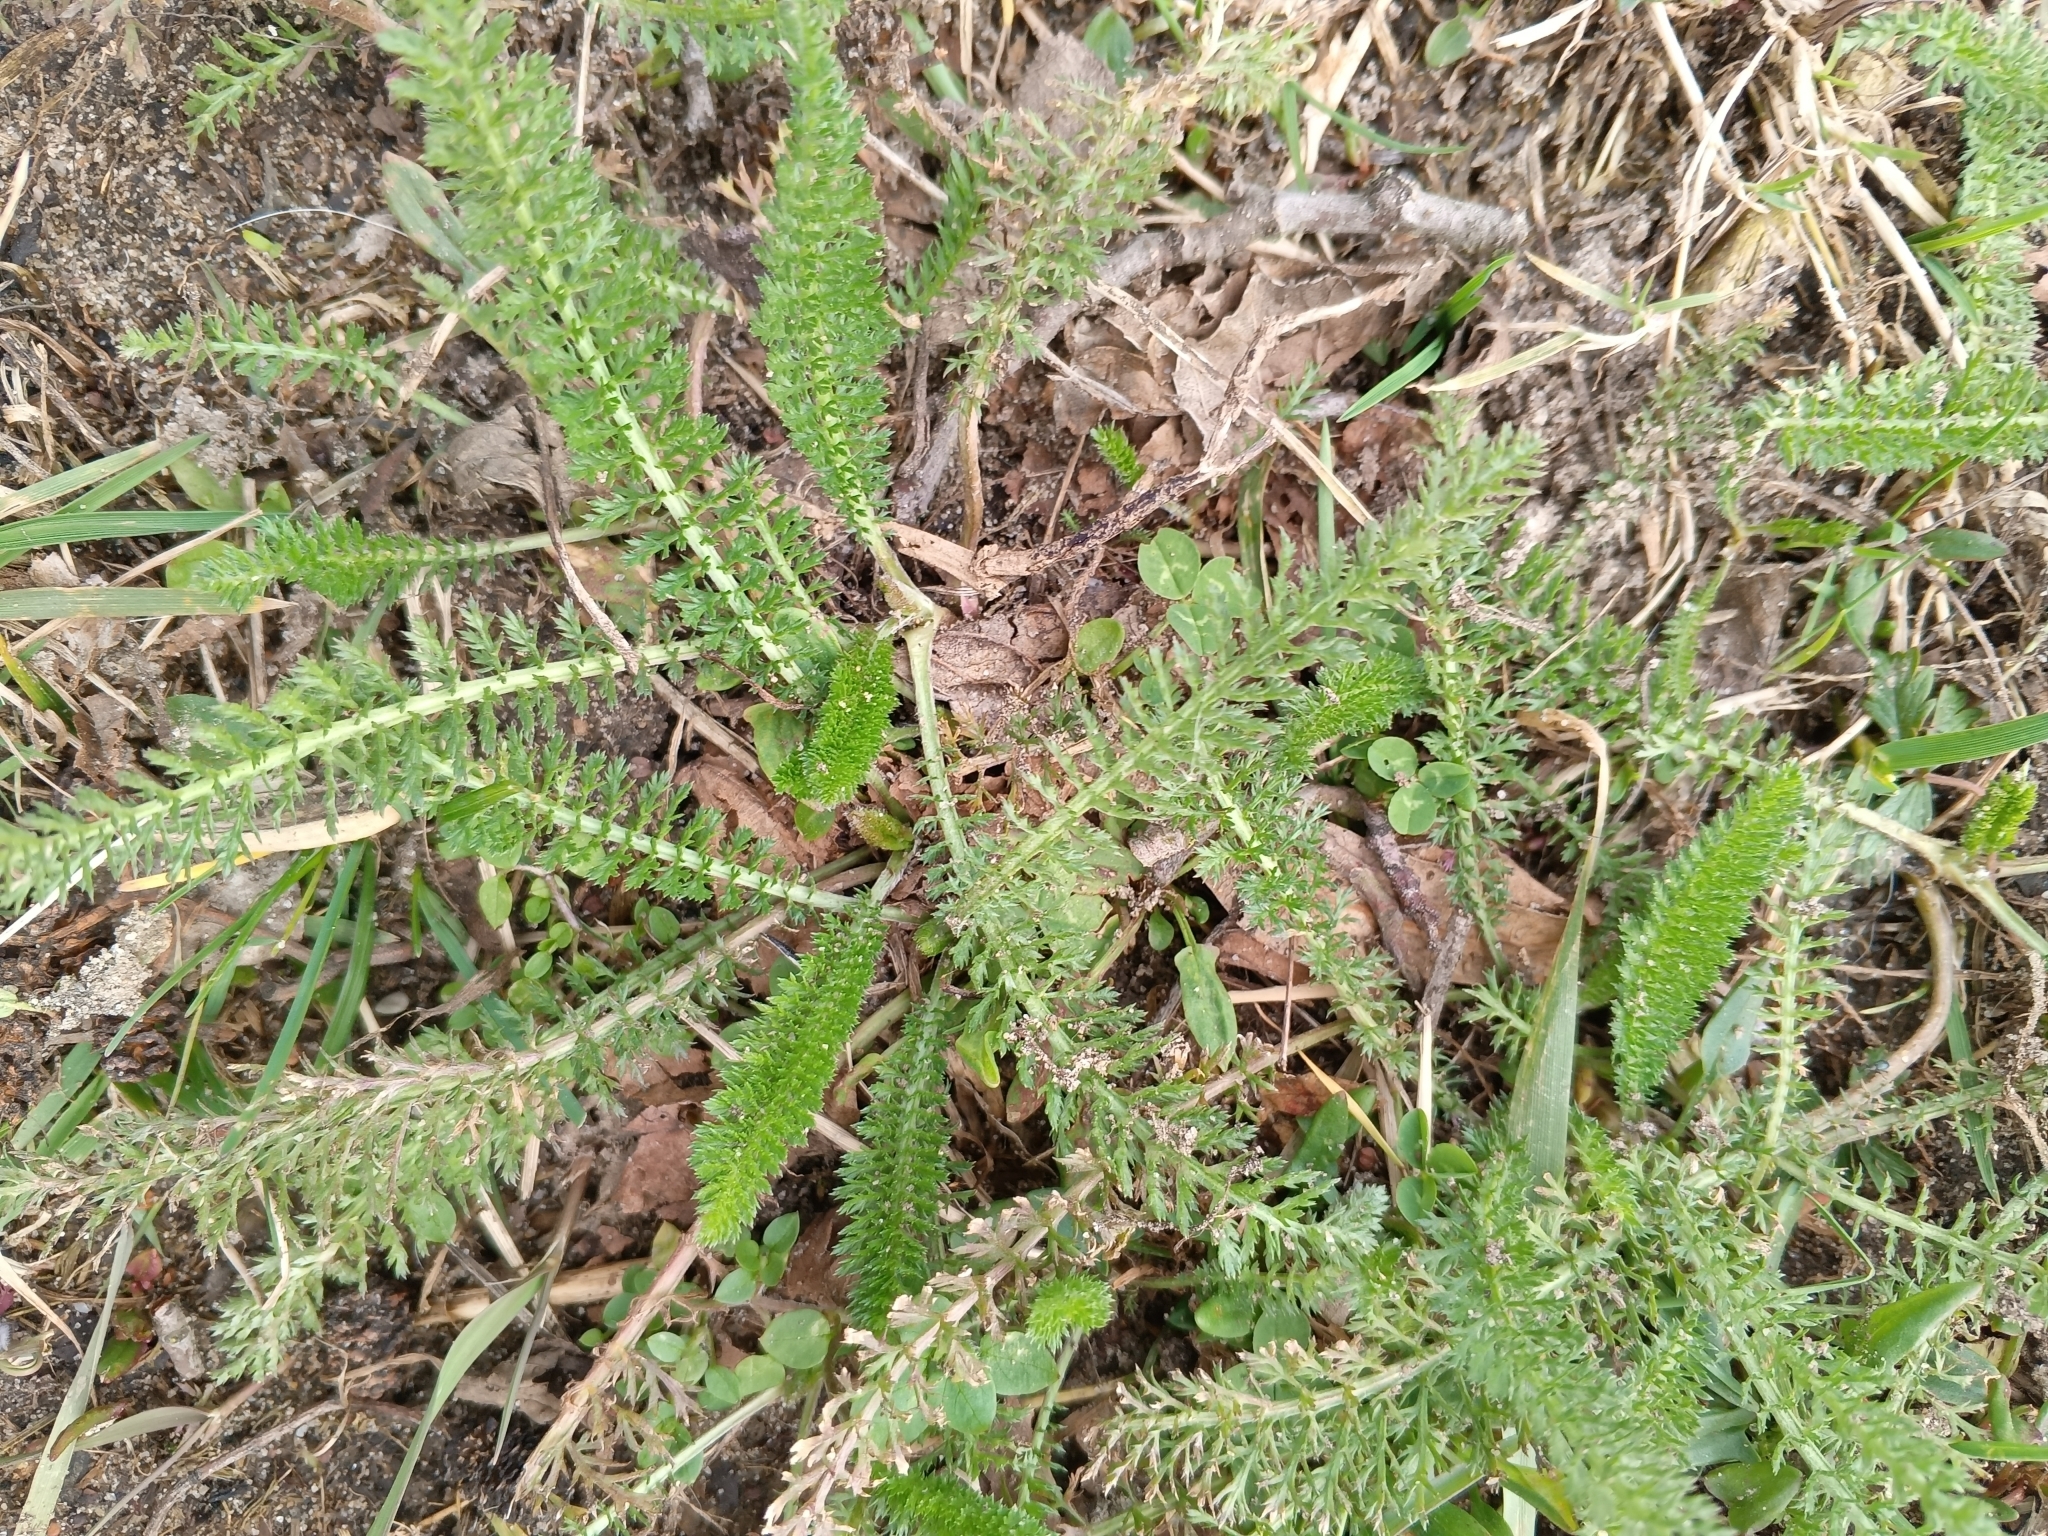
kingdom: Plantae
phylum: Tracheophyta
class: Magnoliopsida
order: Asterales
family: Asteraceae
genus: Achillea
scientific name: Achillea millefolium
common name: Yarrow
